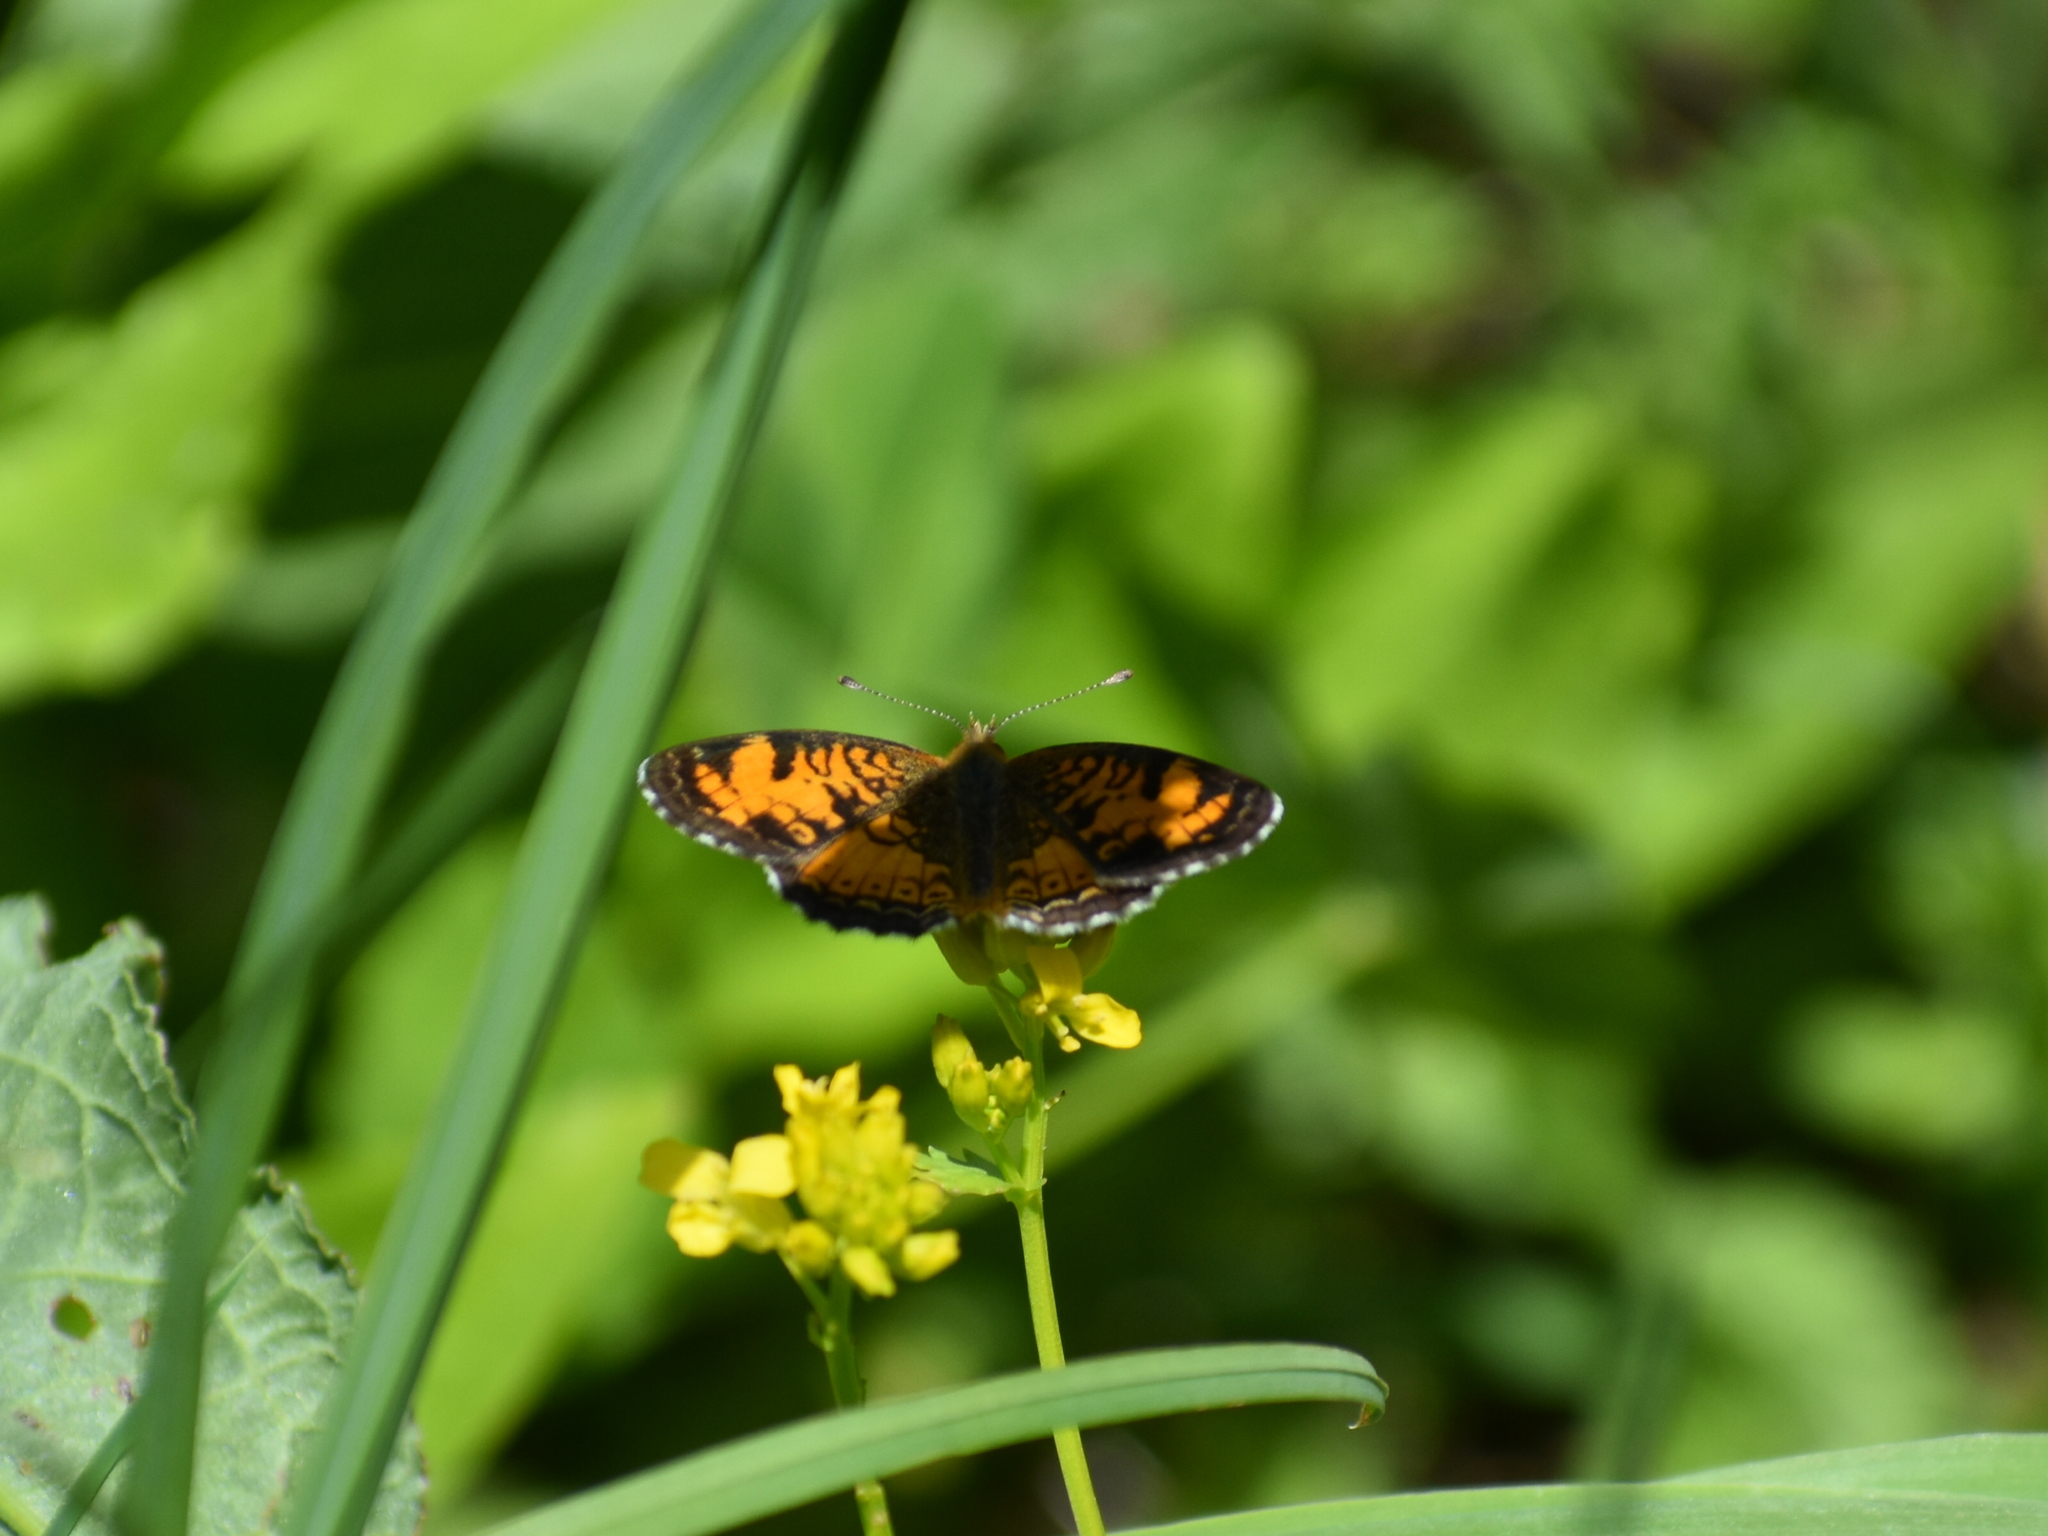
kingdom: Animalia
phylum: Arthropoda
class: Insecta
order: Lepidoptera
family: Nymphalidae
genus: Phyciodes
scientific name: Phyciodes tharos
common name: Pearl crescent
